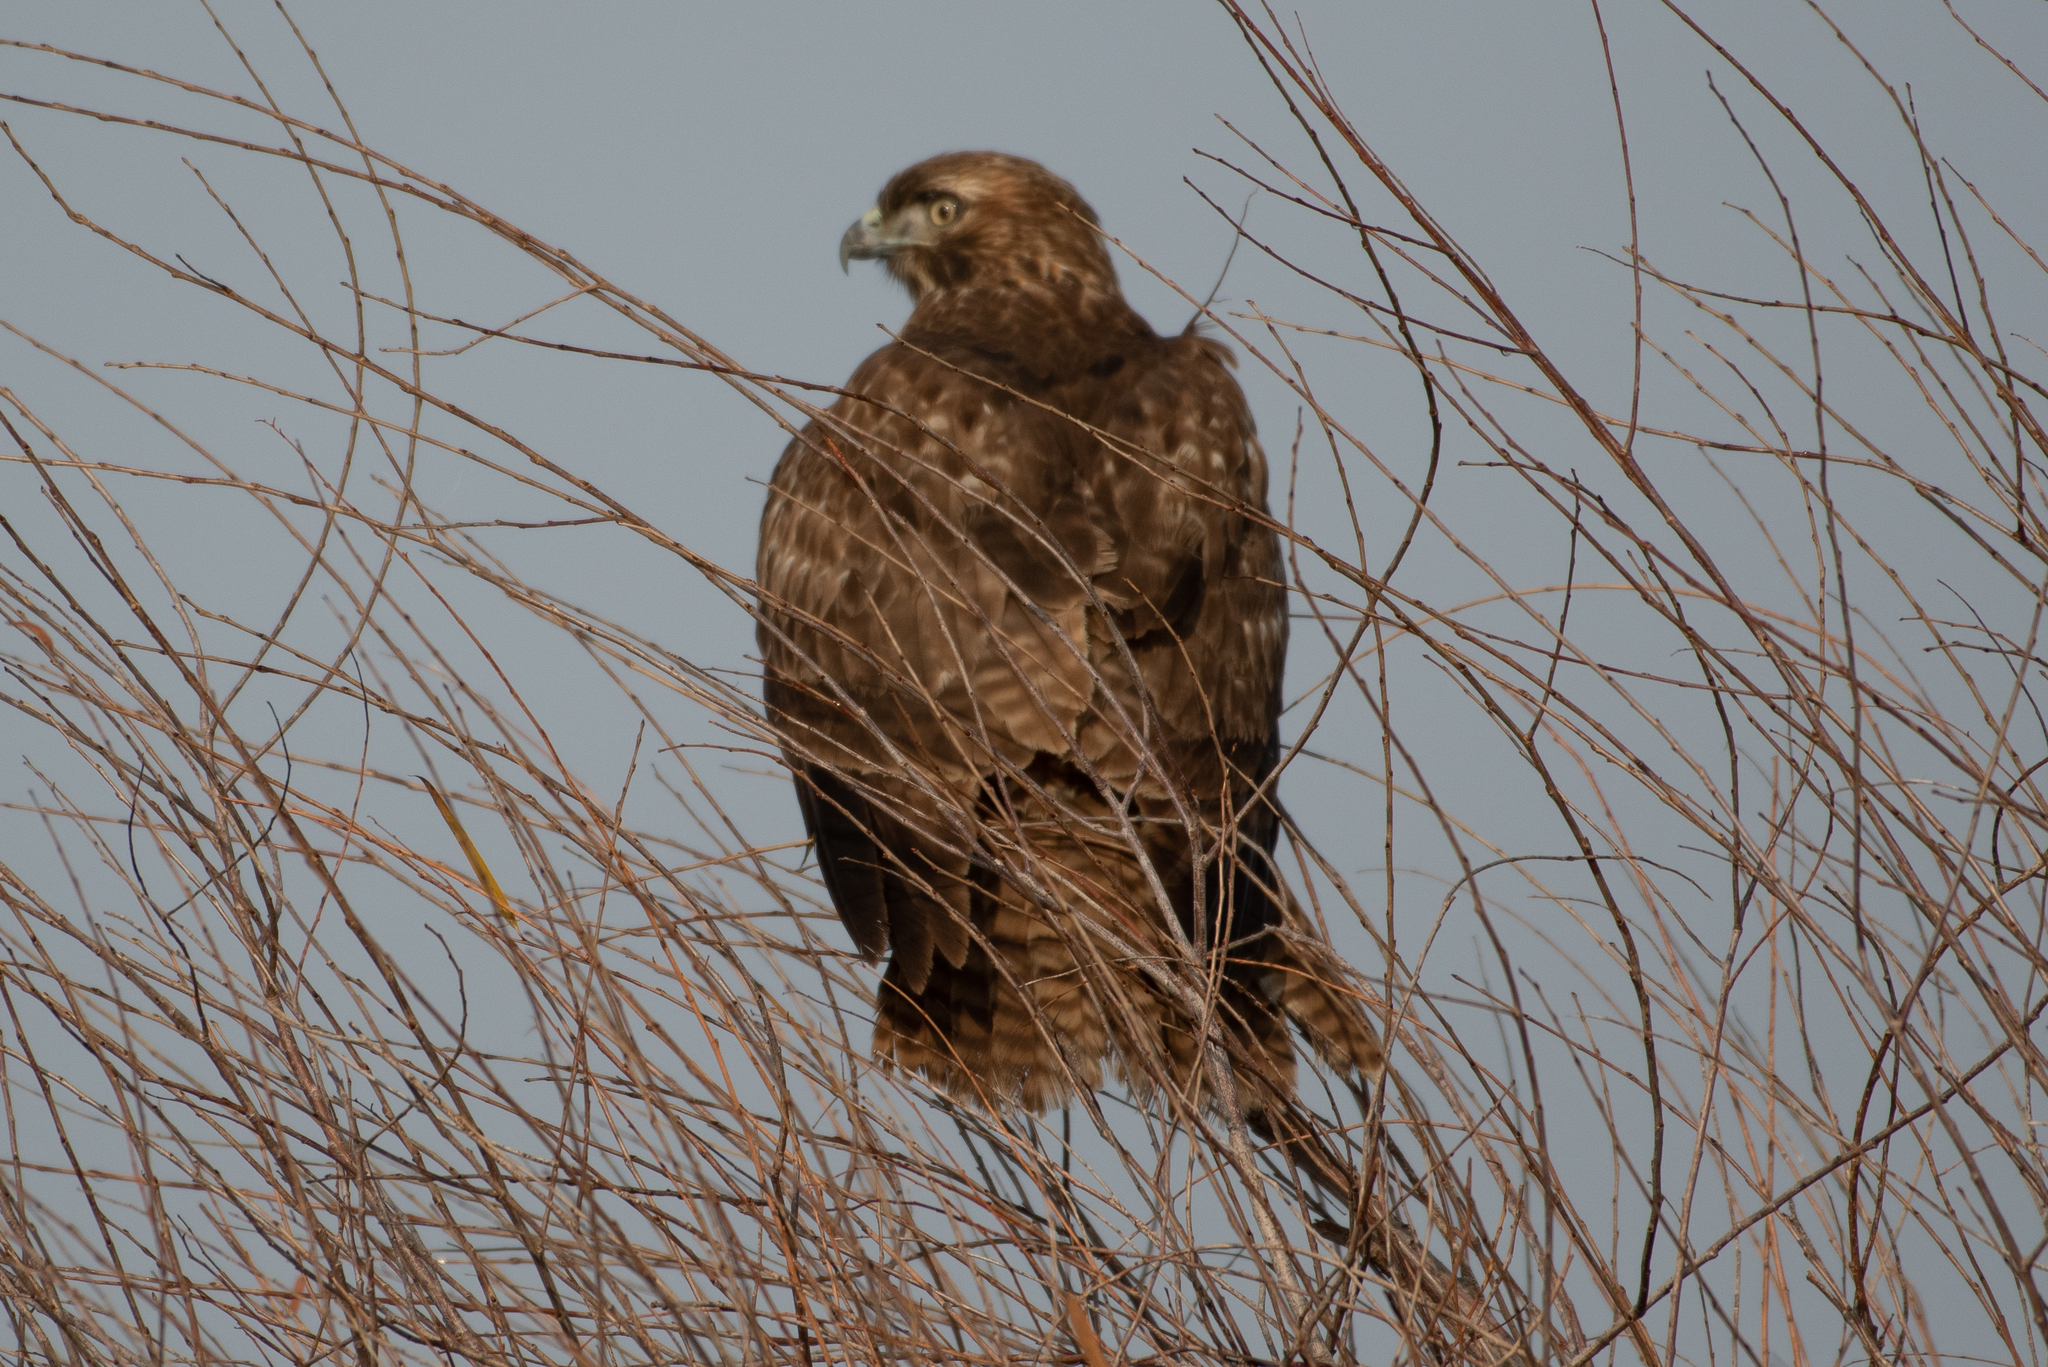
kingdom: Animalia
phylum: Chordata
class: Aves
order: Accipitriformes
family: Accipitridae
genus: Buteo
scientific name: Buteo jamaicensis
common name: Red-tailed hawk
